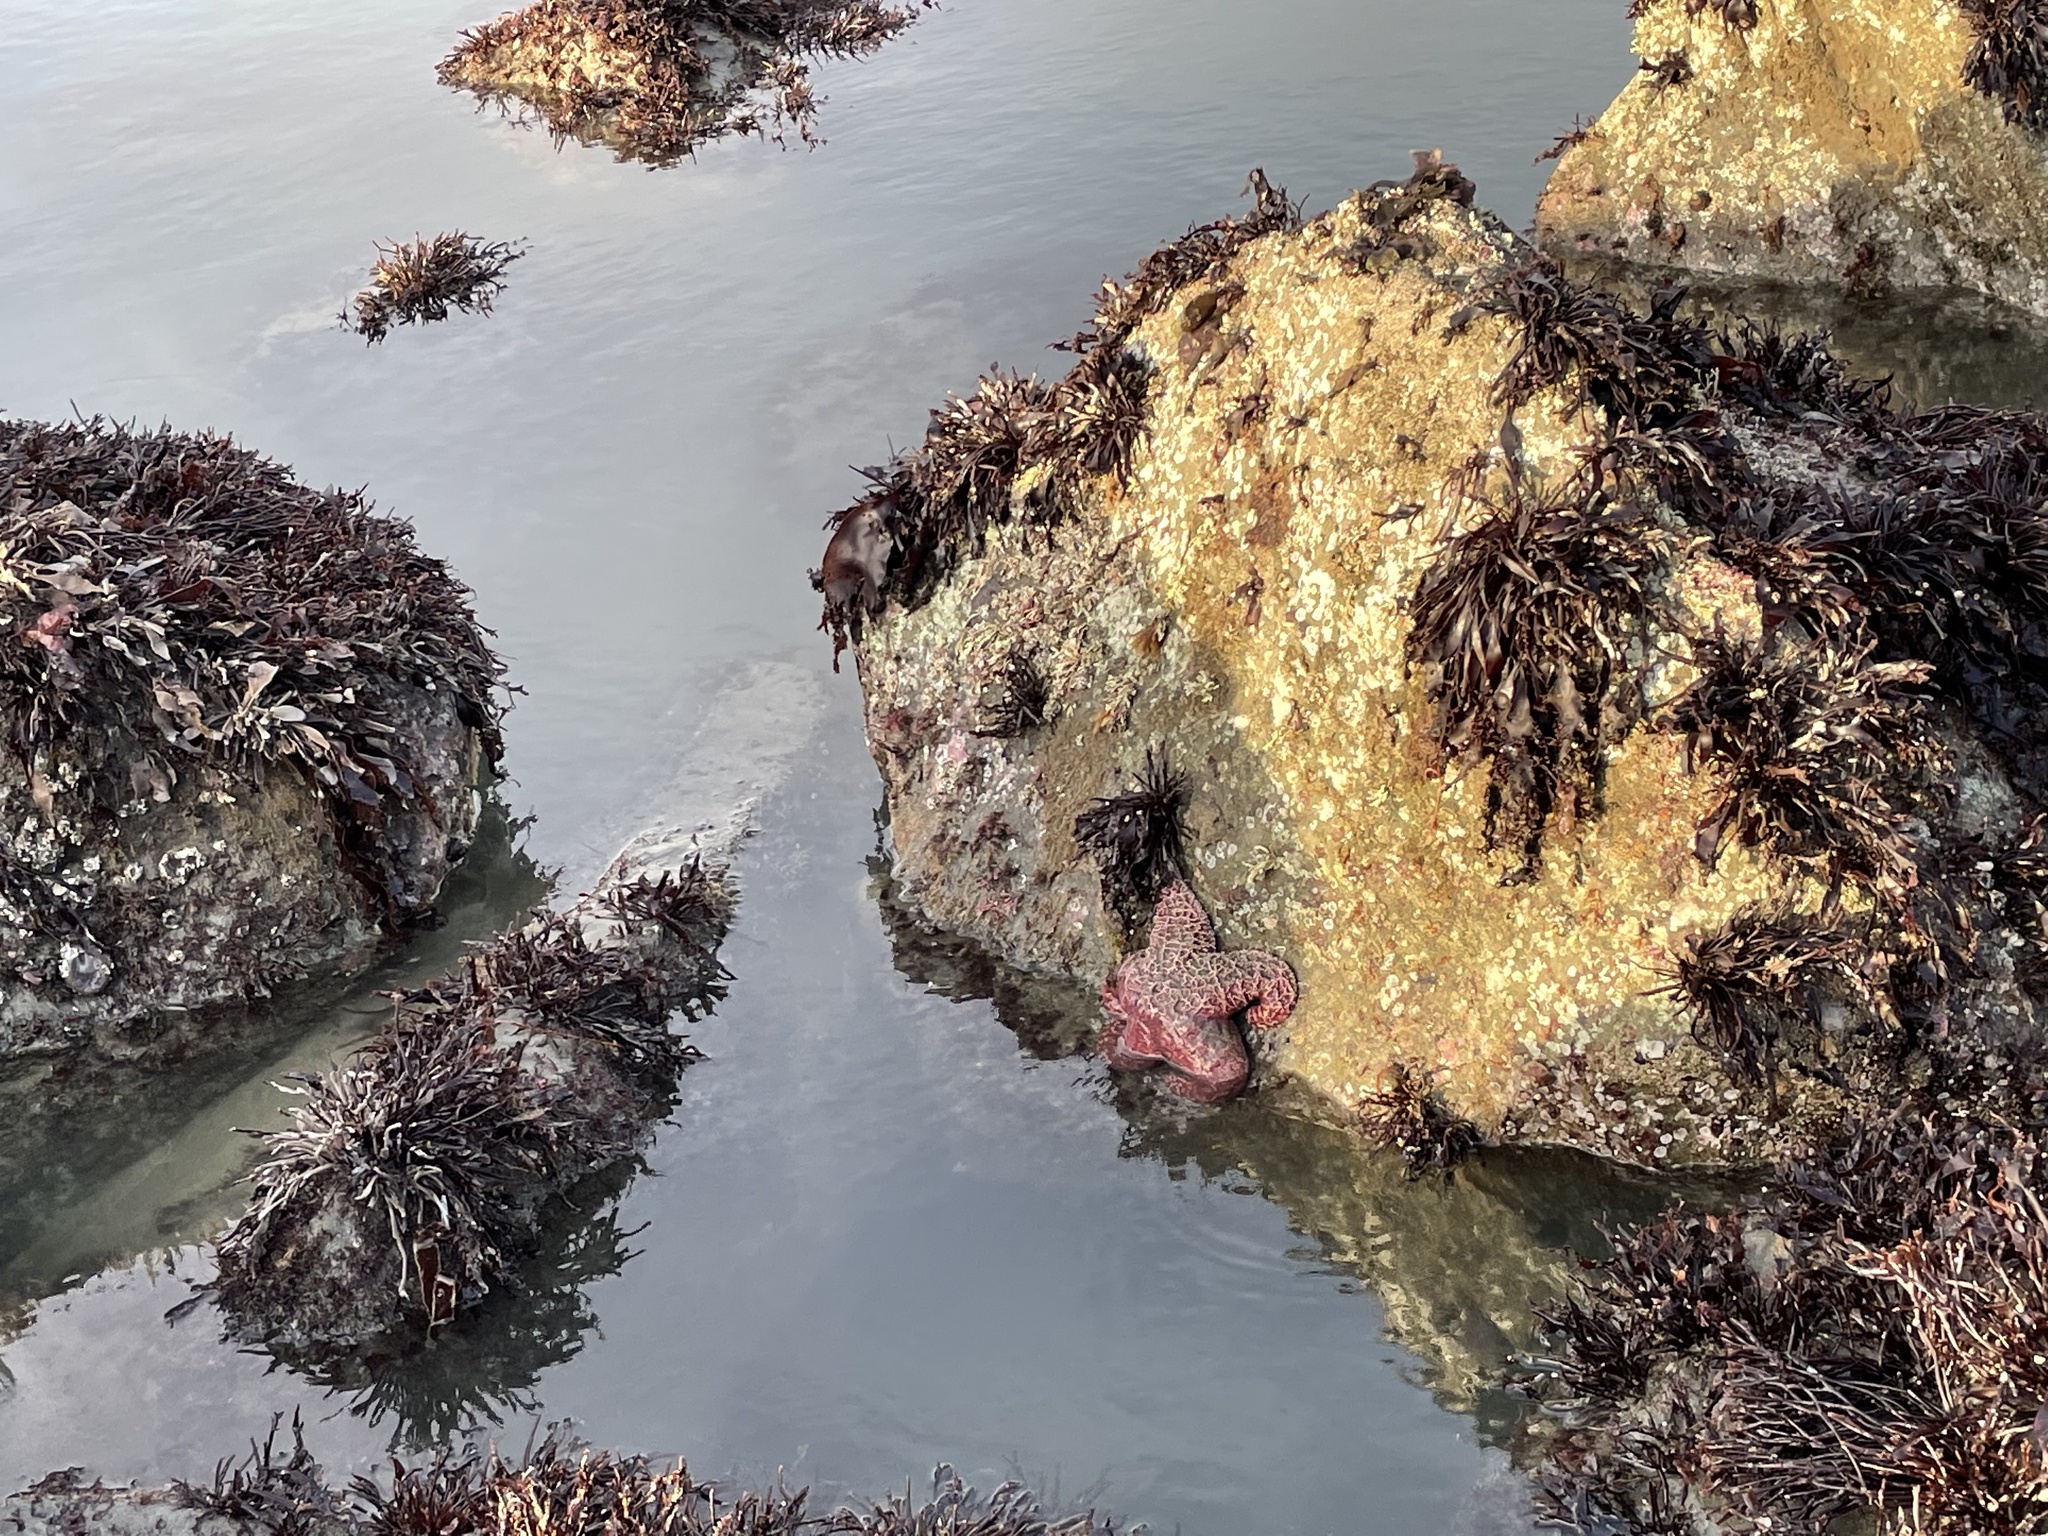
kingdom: Animalia
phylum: Echinodermata
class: Asteroidea
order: Forcipulatida
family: Asteriidae
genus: Pisaster
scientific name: Pisaster ochraceus
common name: Ochre stars
